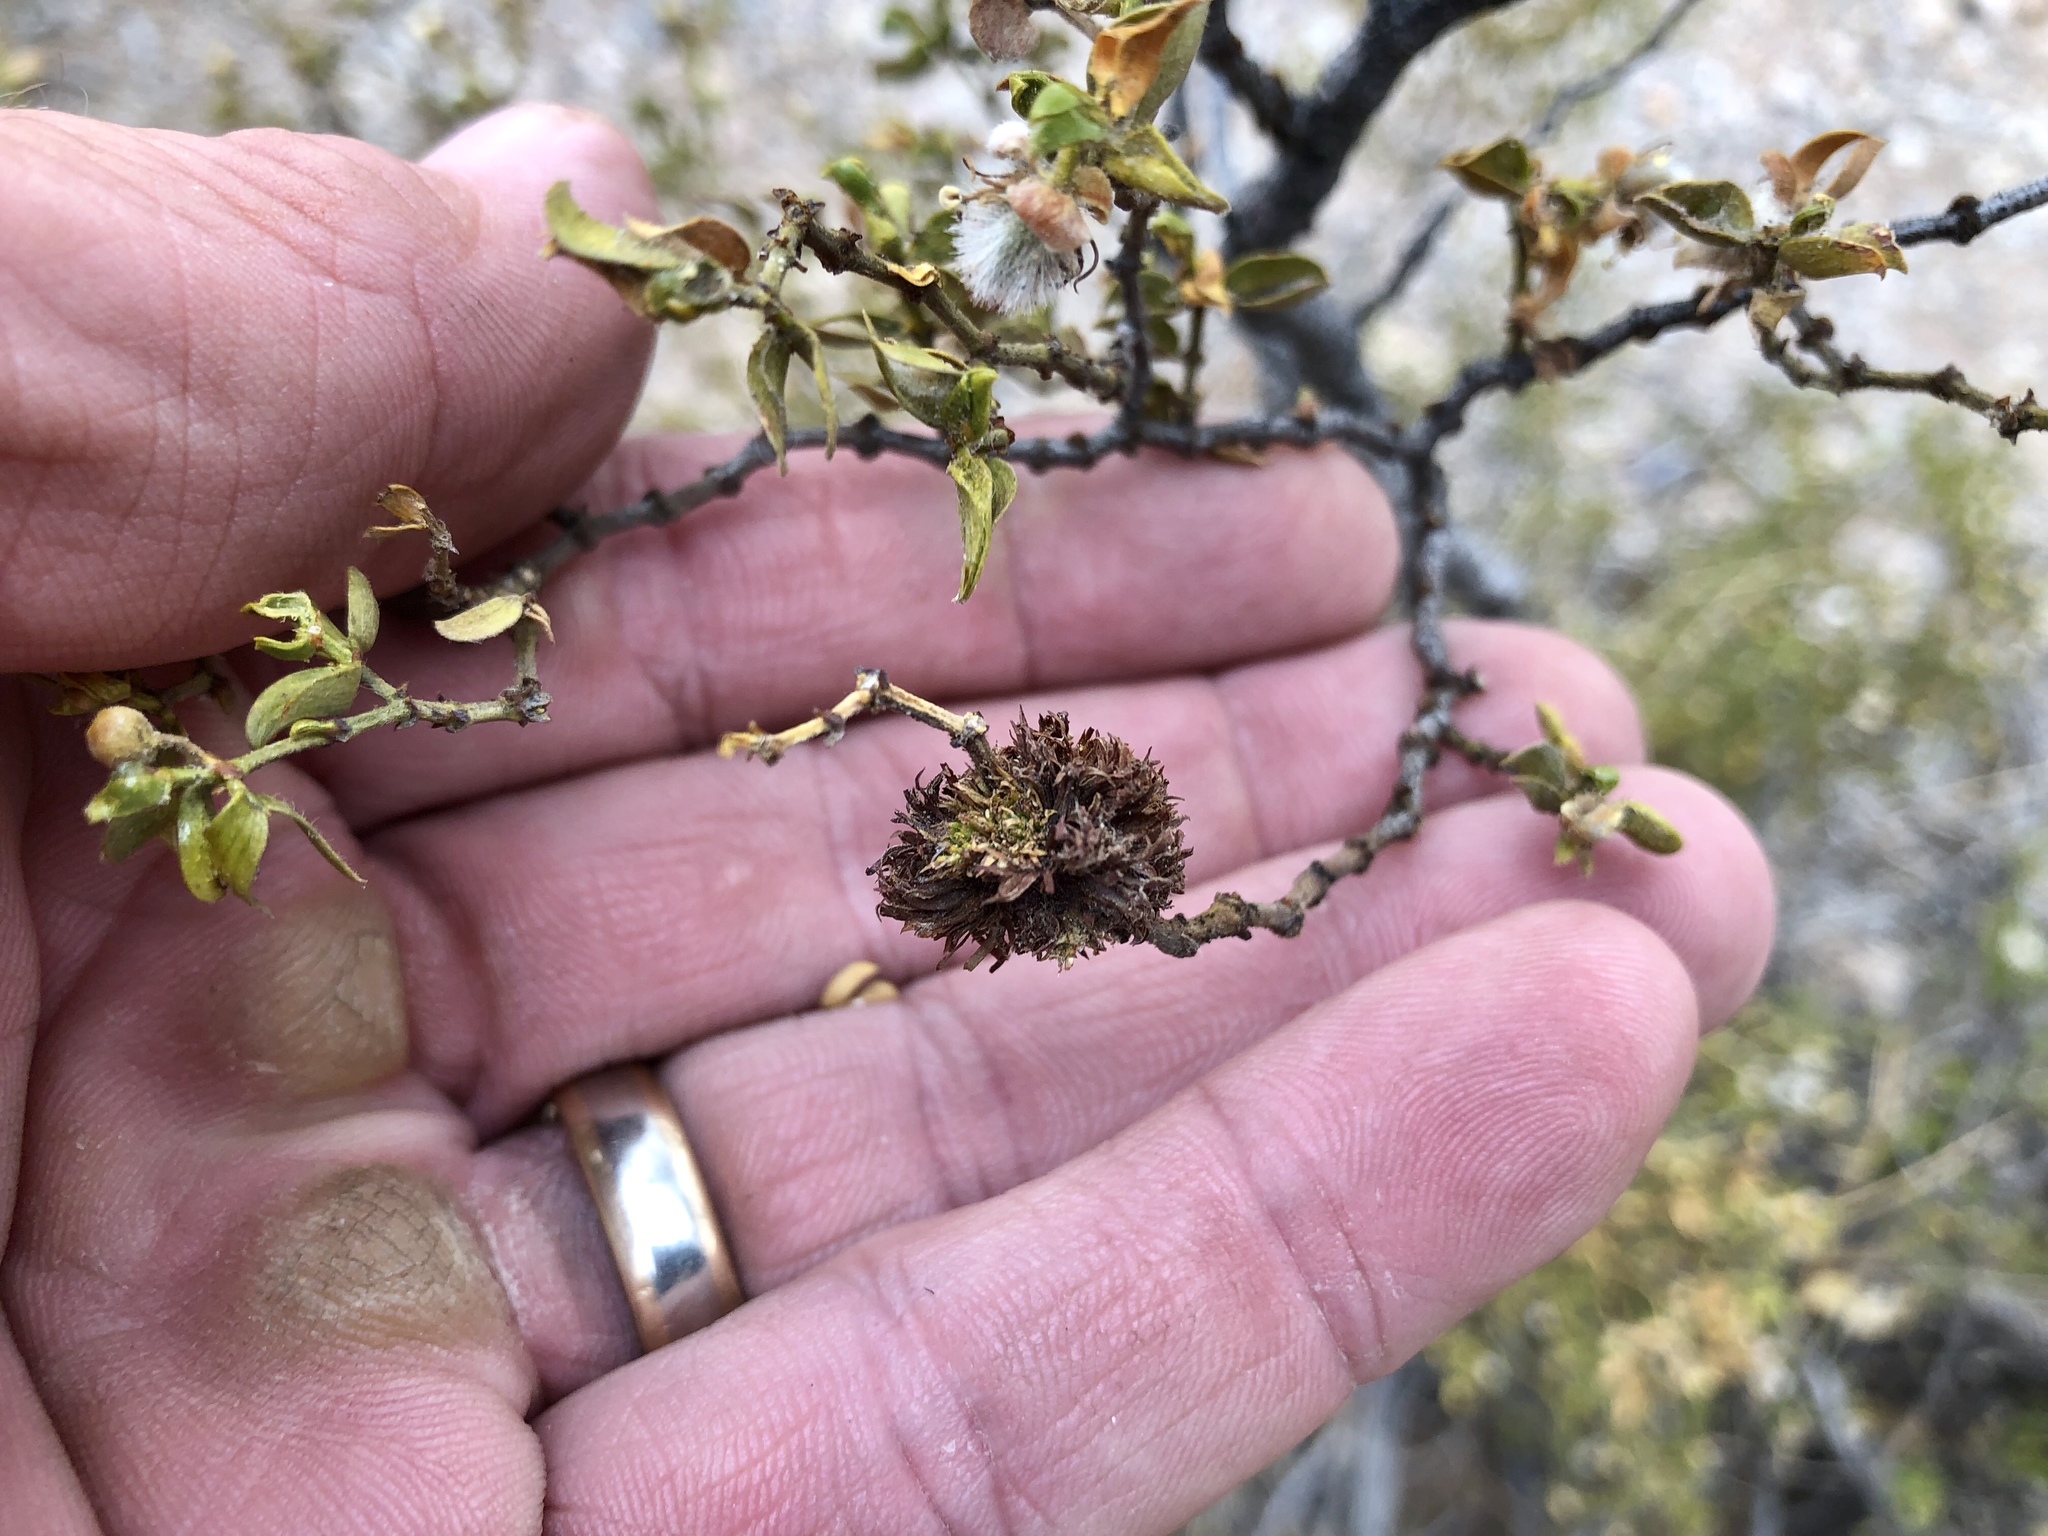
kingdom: Animalia
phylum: Arthropoda
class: Insecta
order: Diptera
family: Cecidomyiidae
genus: Asphondylia
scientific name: Asphondylia auripila
